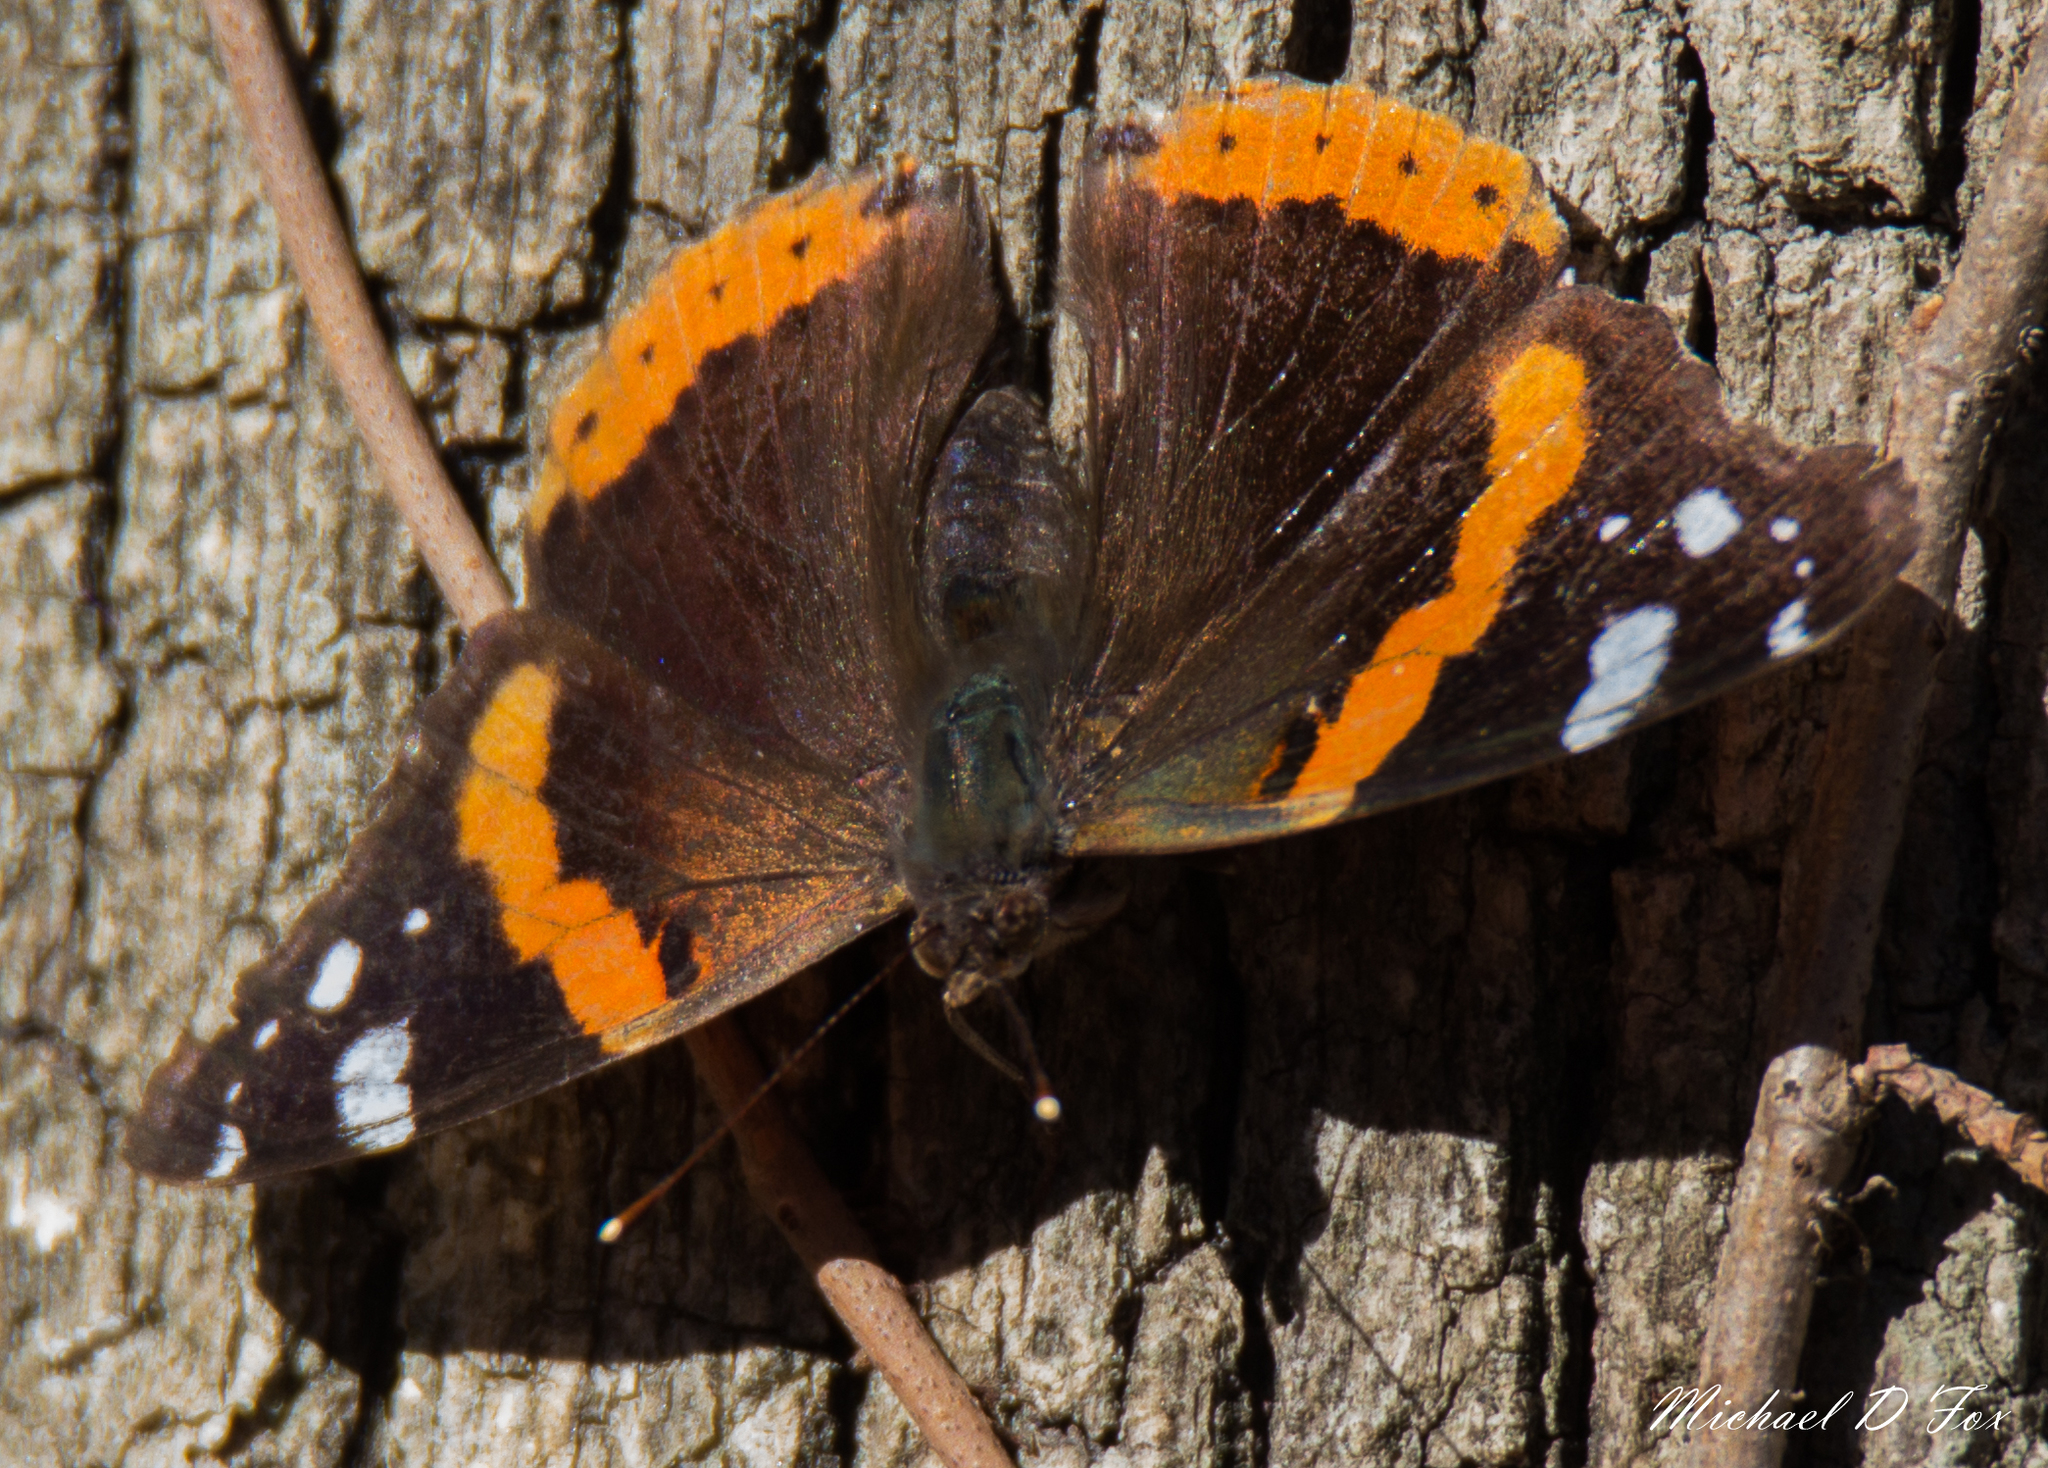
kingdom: Animalia
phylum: Arthropoda
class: Insecta
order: Lepidoptera
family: Nymphalidae
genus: Vanessa
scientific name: Vanessa atalanta
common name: Red admiral
